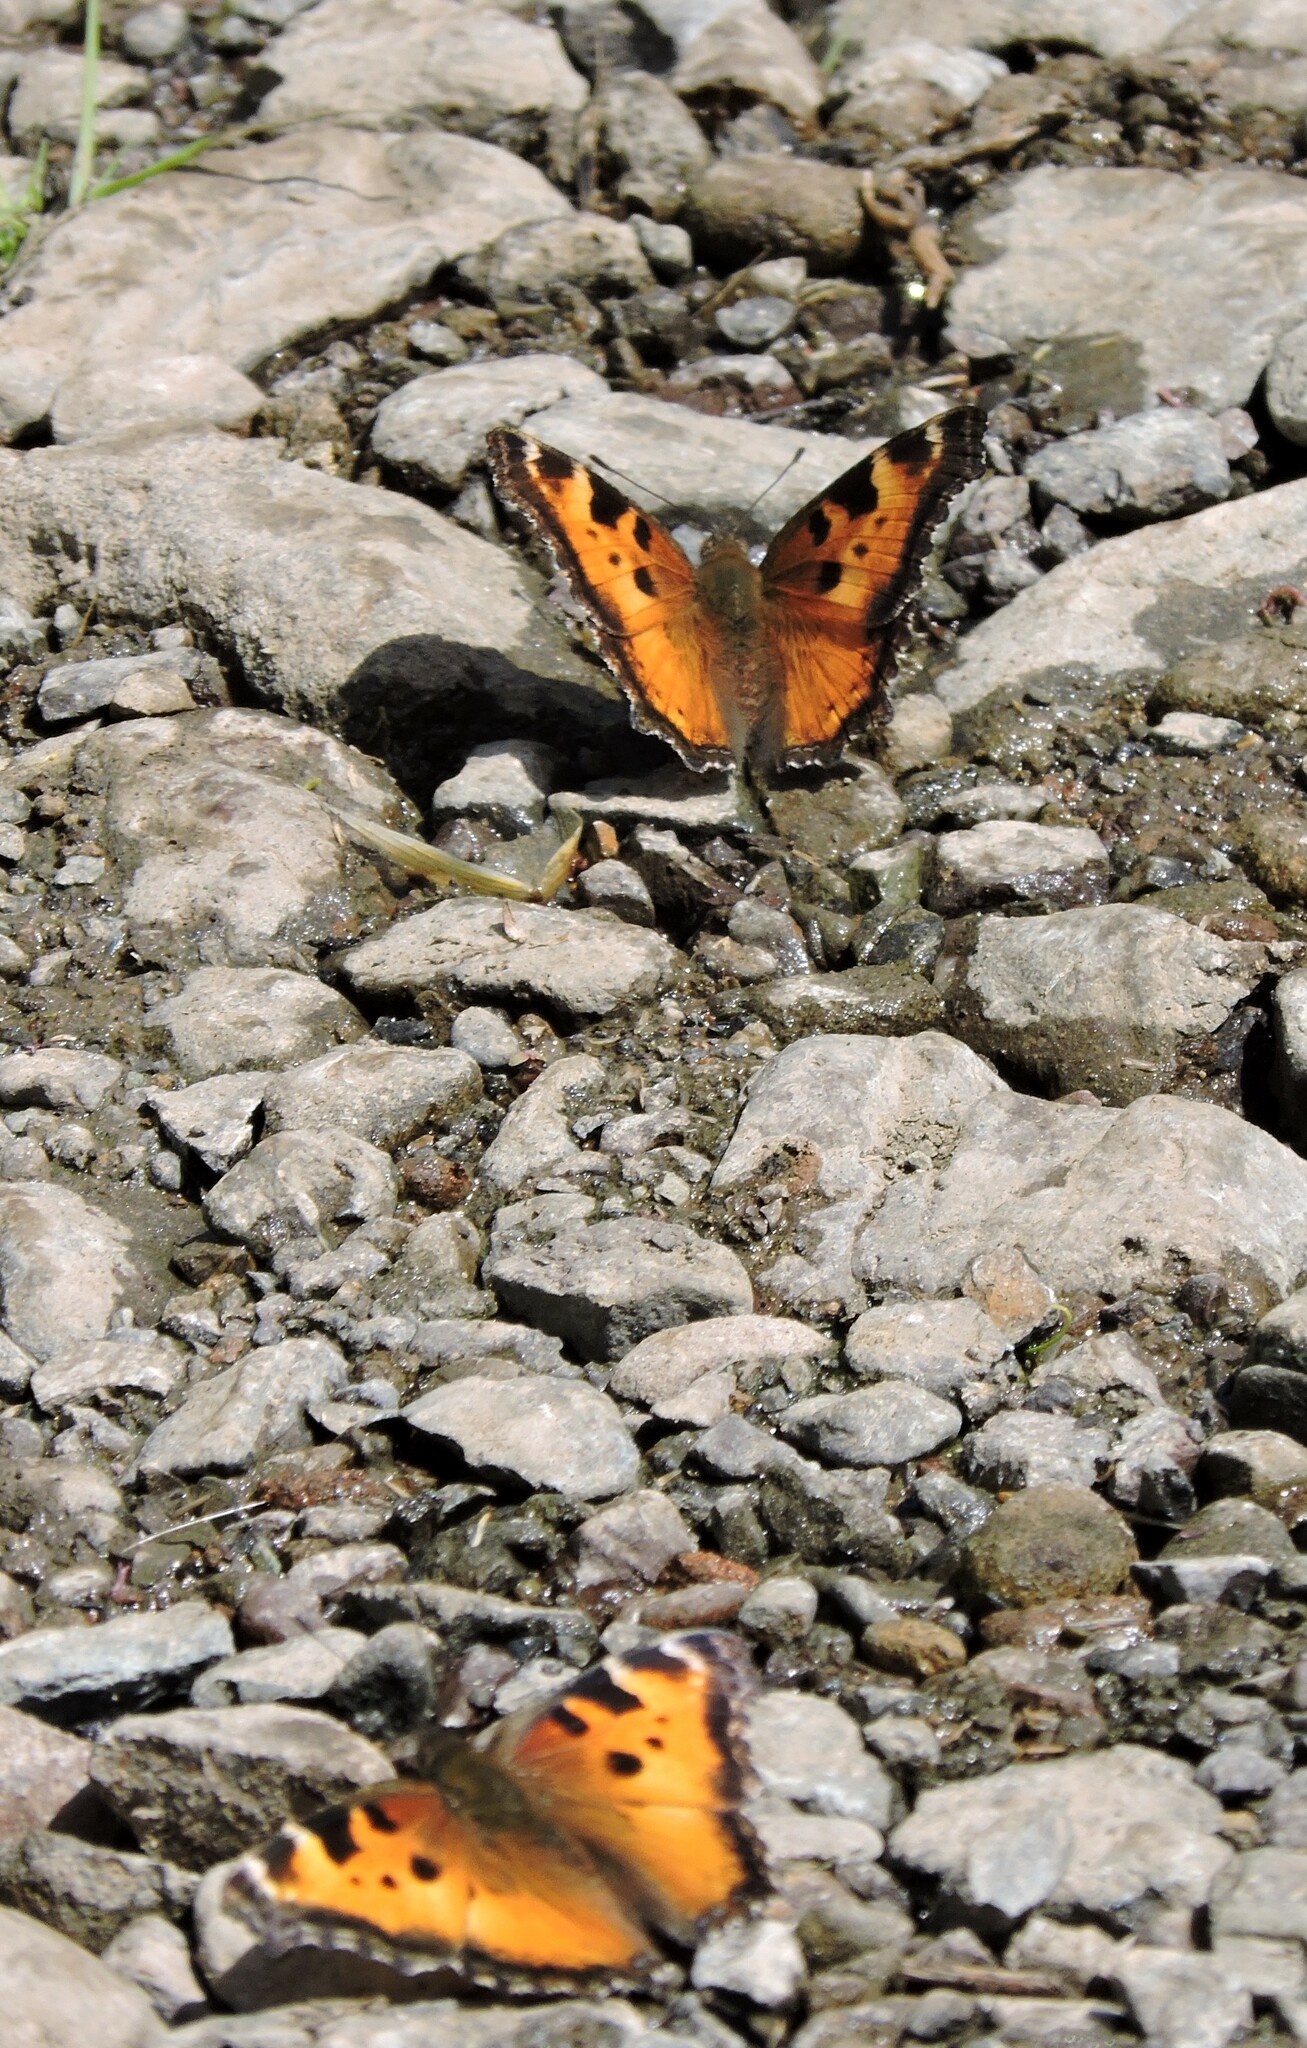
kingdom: Animalia
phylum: Arthropoda
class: Insecta
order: Lepidoptera
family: Nymphalidae
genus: Nymphalis
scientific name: Nymphalis californica
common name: California tortoiseshell
